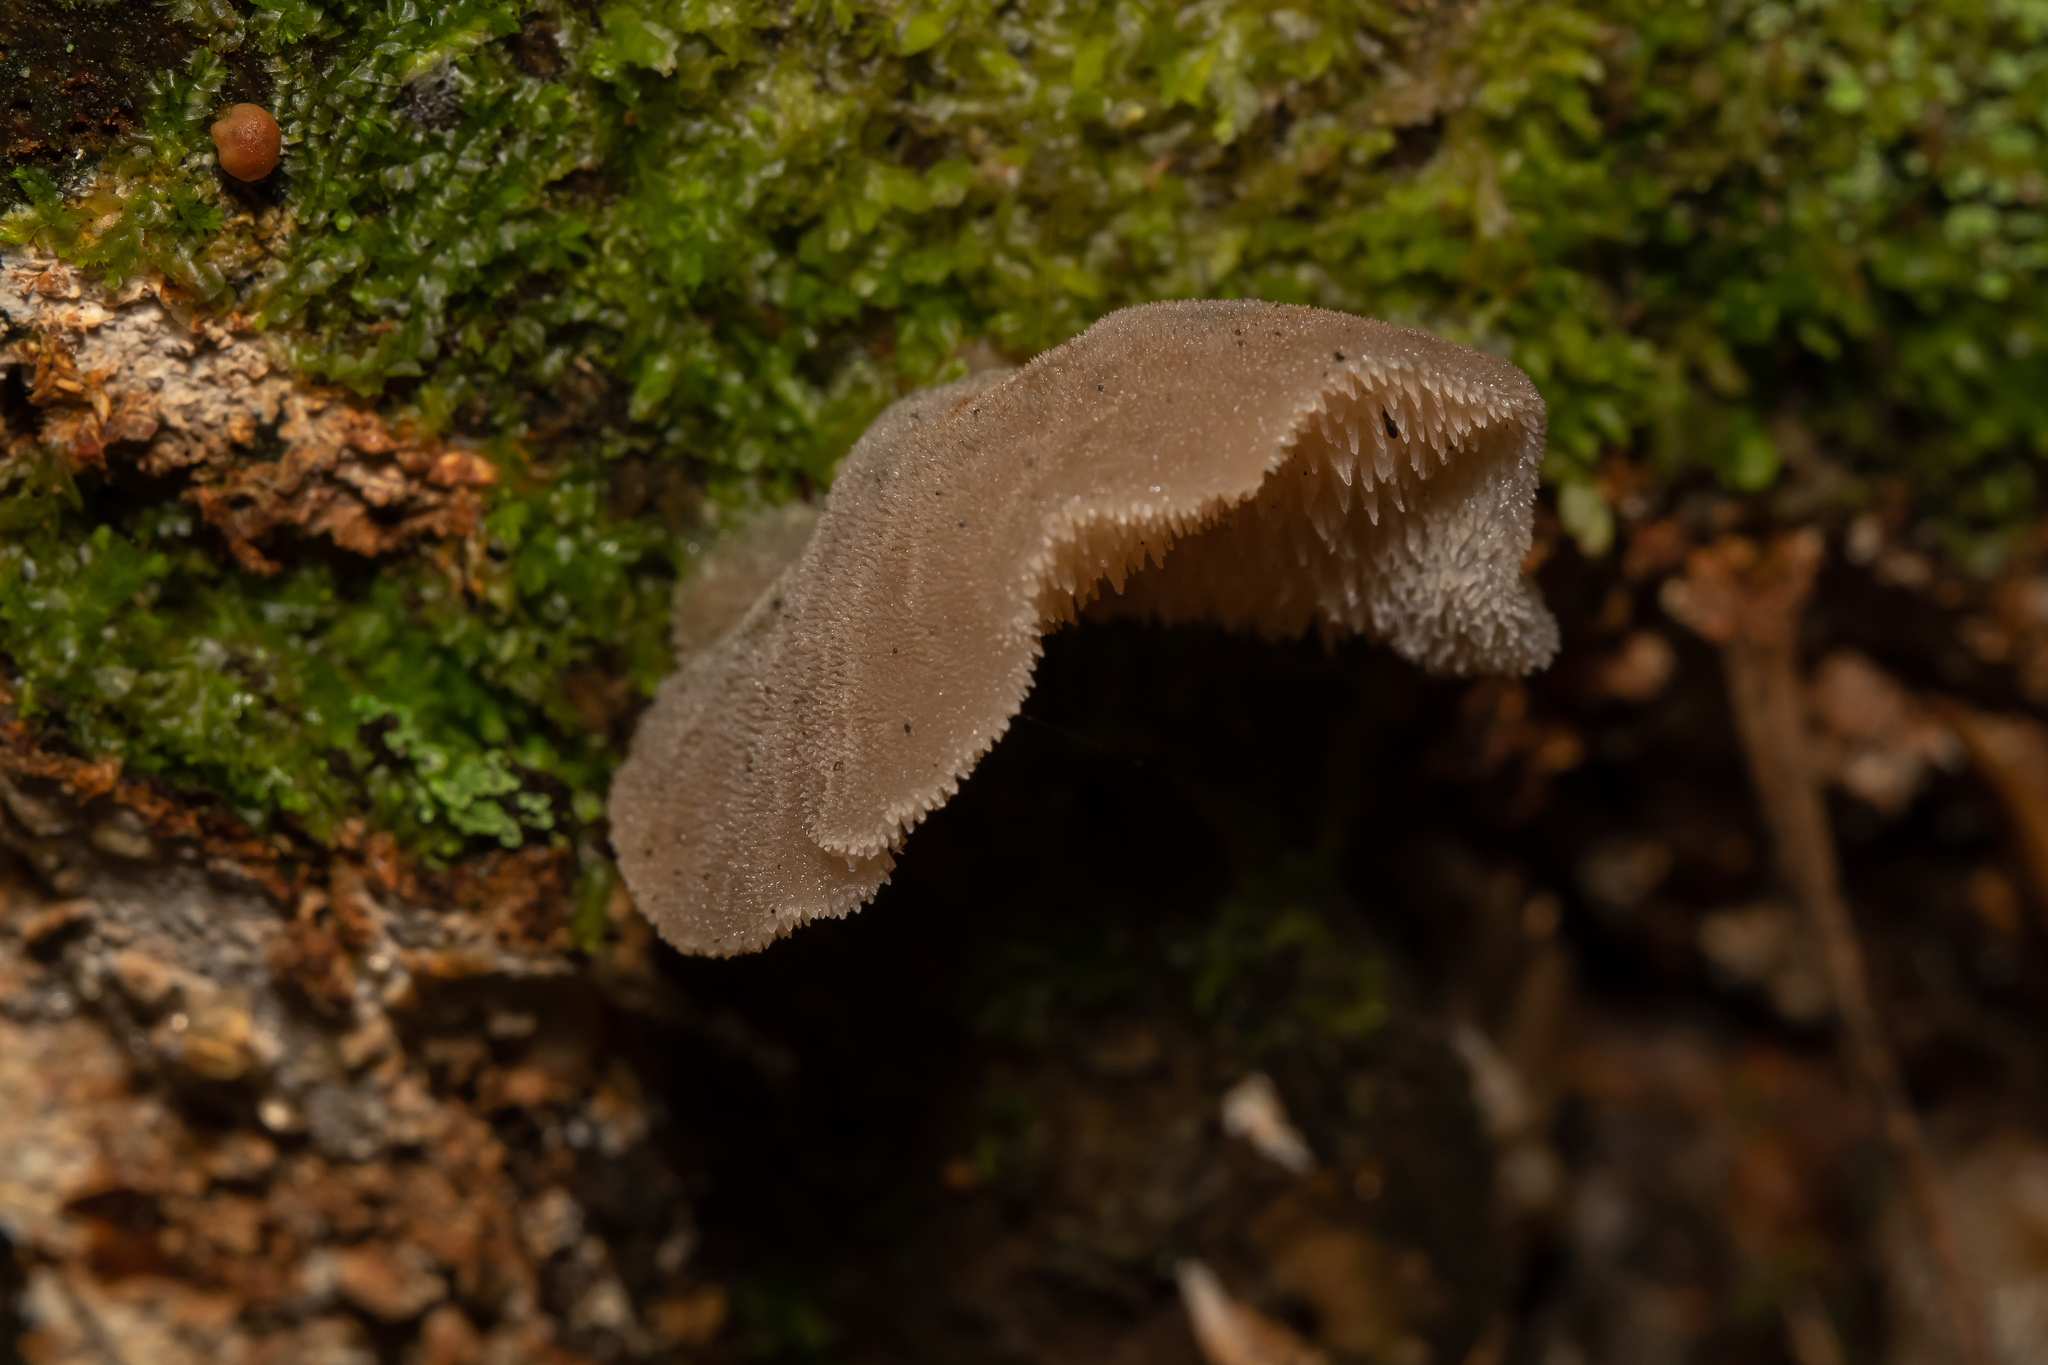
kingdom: Fungi
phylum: Basidiomycota
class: Agaricomycetes
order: Auriculariales
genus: Pseudohydnum
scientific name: Pseudohydnum gelatinosum
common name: Jelly tongue
